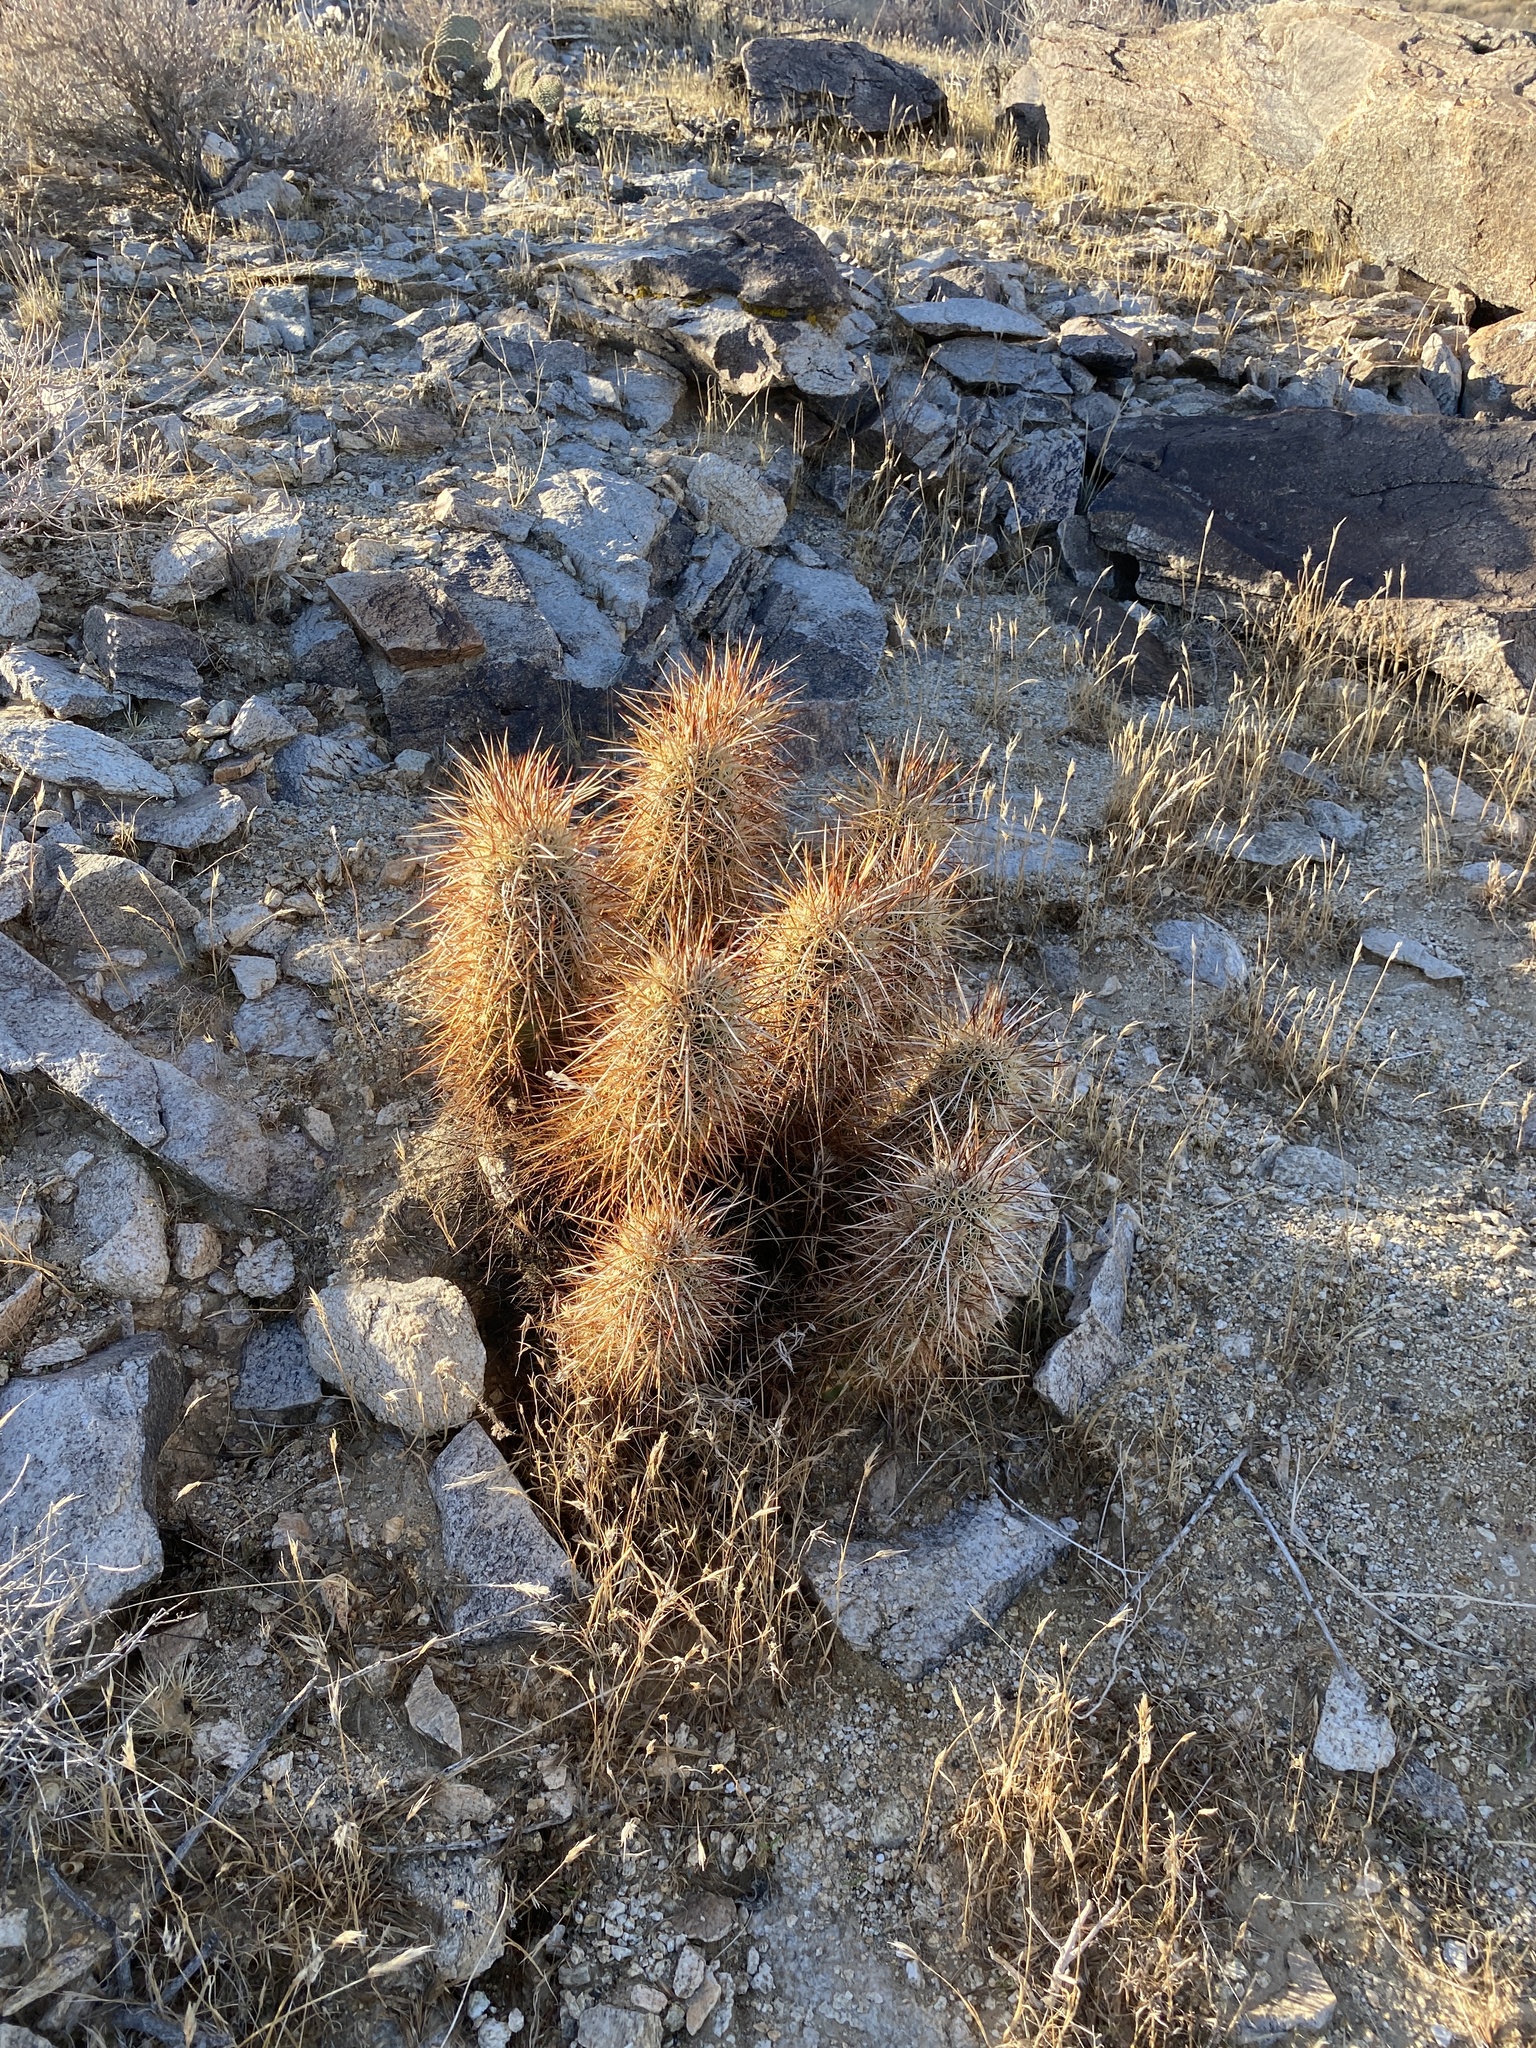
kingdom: Plantae
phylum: Tracheophyta
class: Magnoliopsida
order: Caryophyllales
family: Cactaceae
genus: Echinocereus
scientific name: Echinocereus engelmannii
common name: Engelmann's hedgehog cactus
